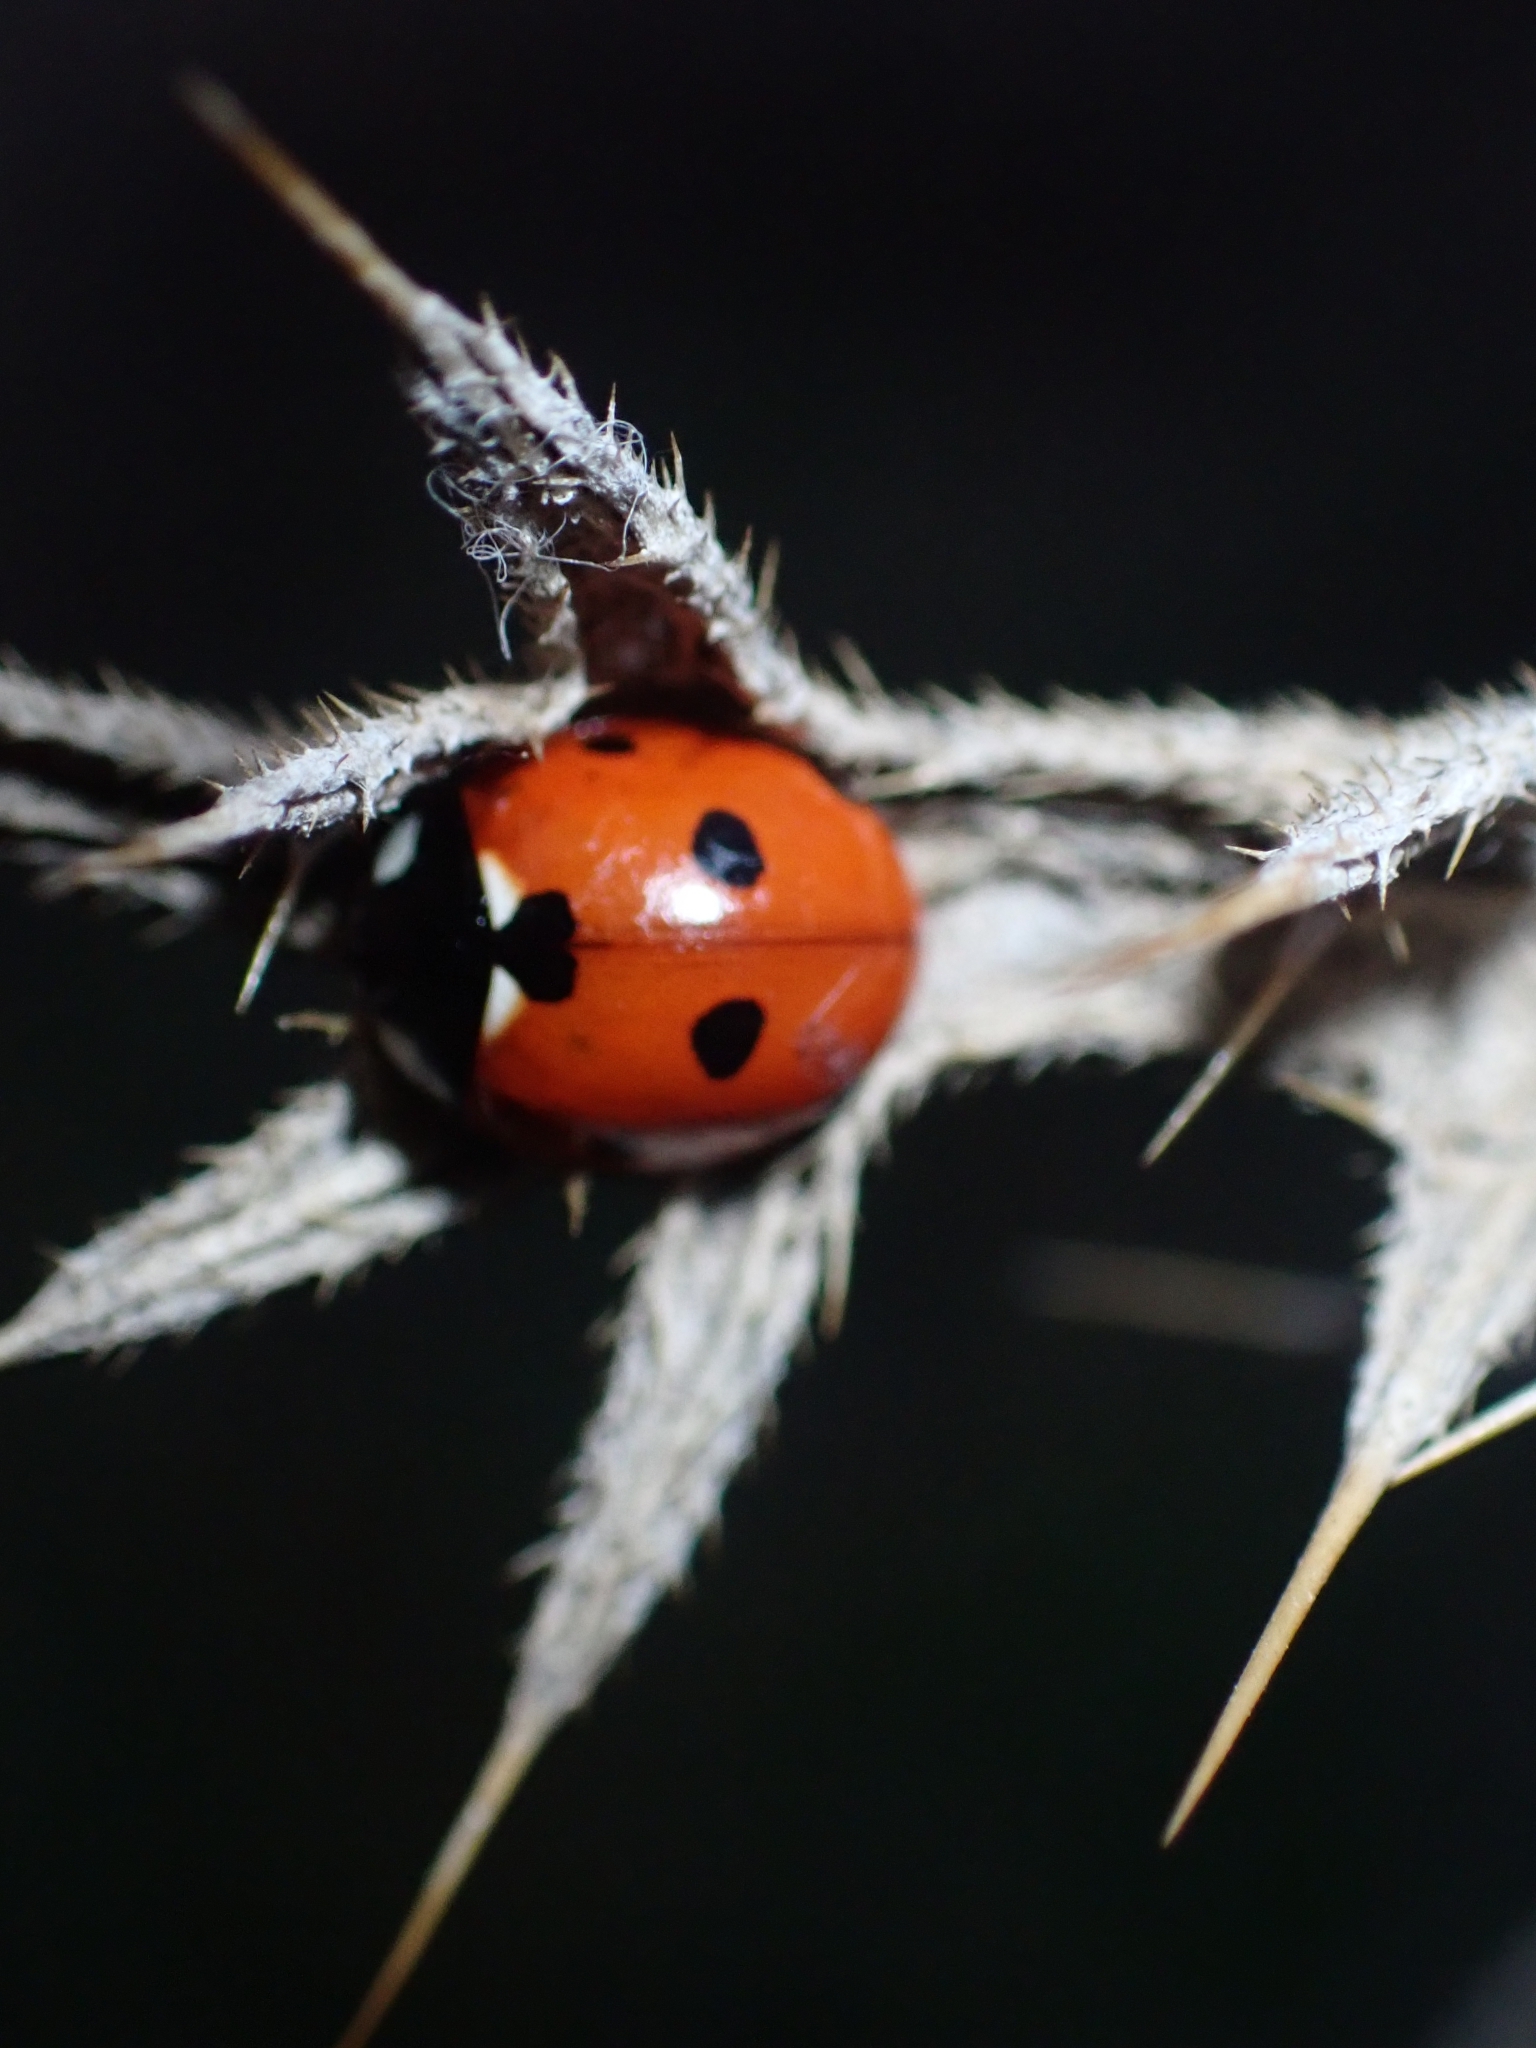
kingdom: Animalia
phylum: Arthropoda
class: Insecta
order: Coleoptera
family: Coccinellidae
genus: Coccinella
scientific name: Coccinella septempunctata
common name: Sevenspotted lady beetle
